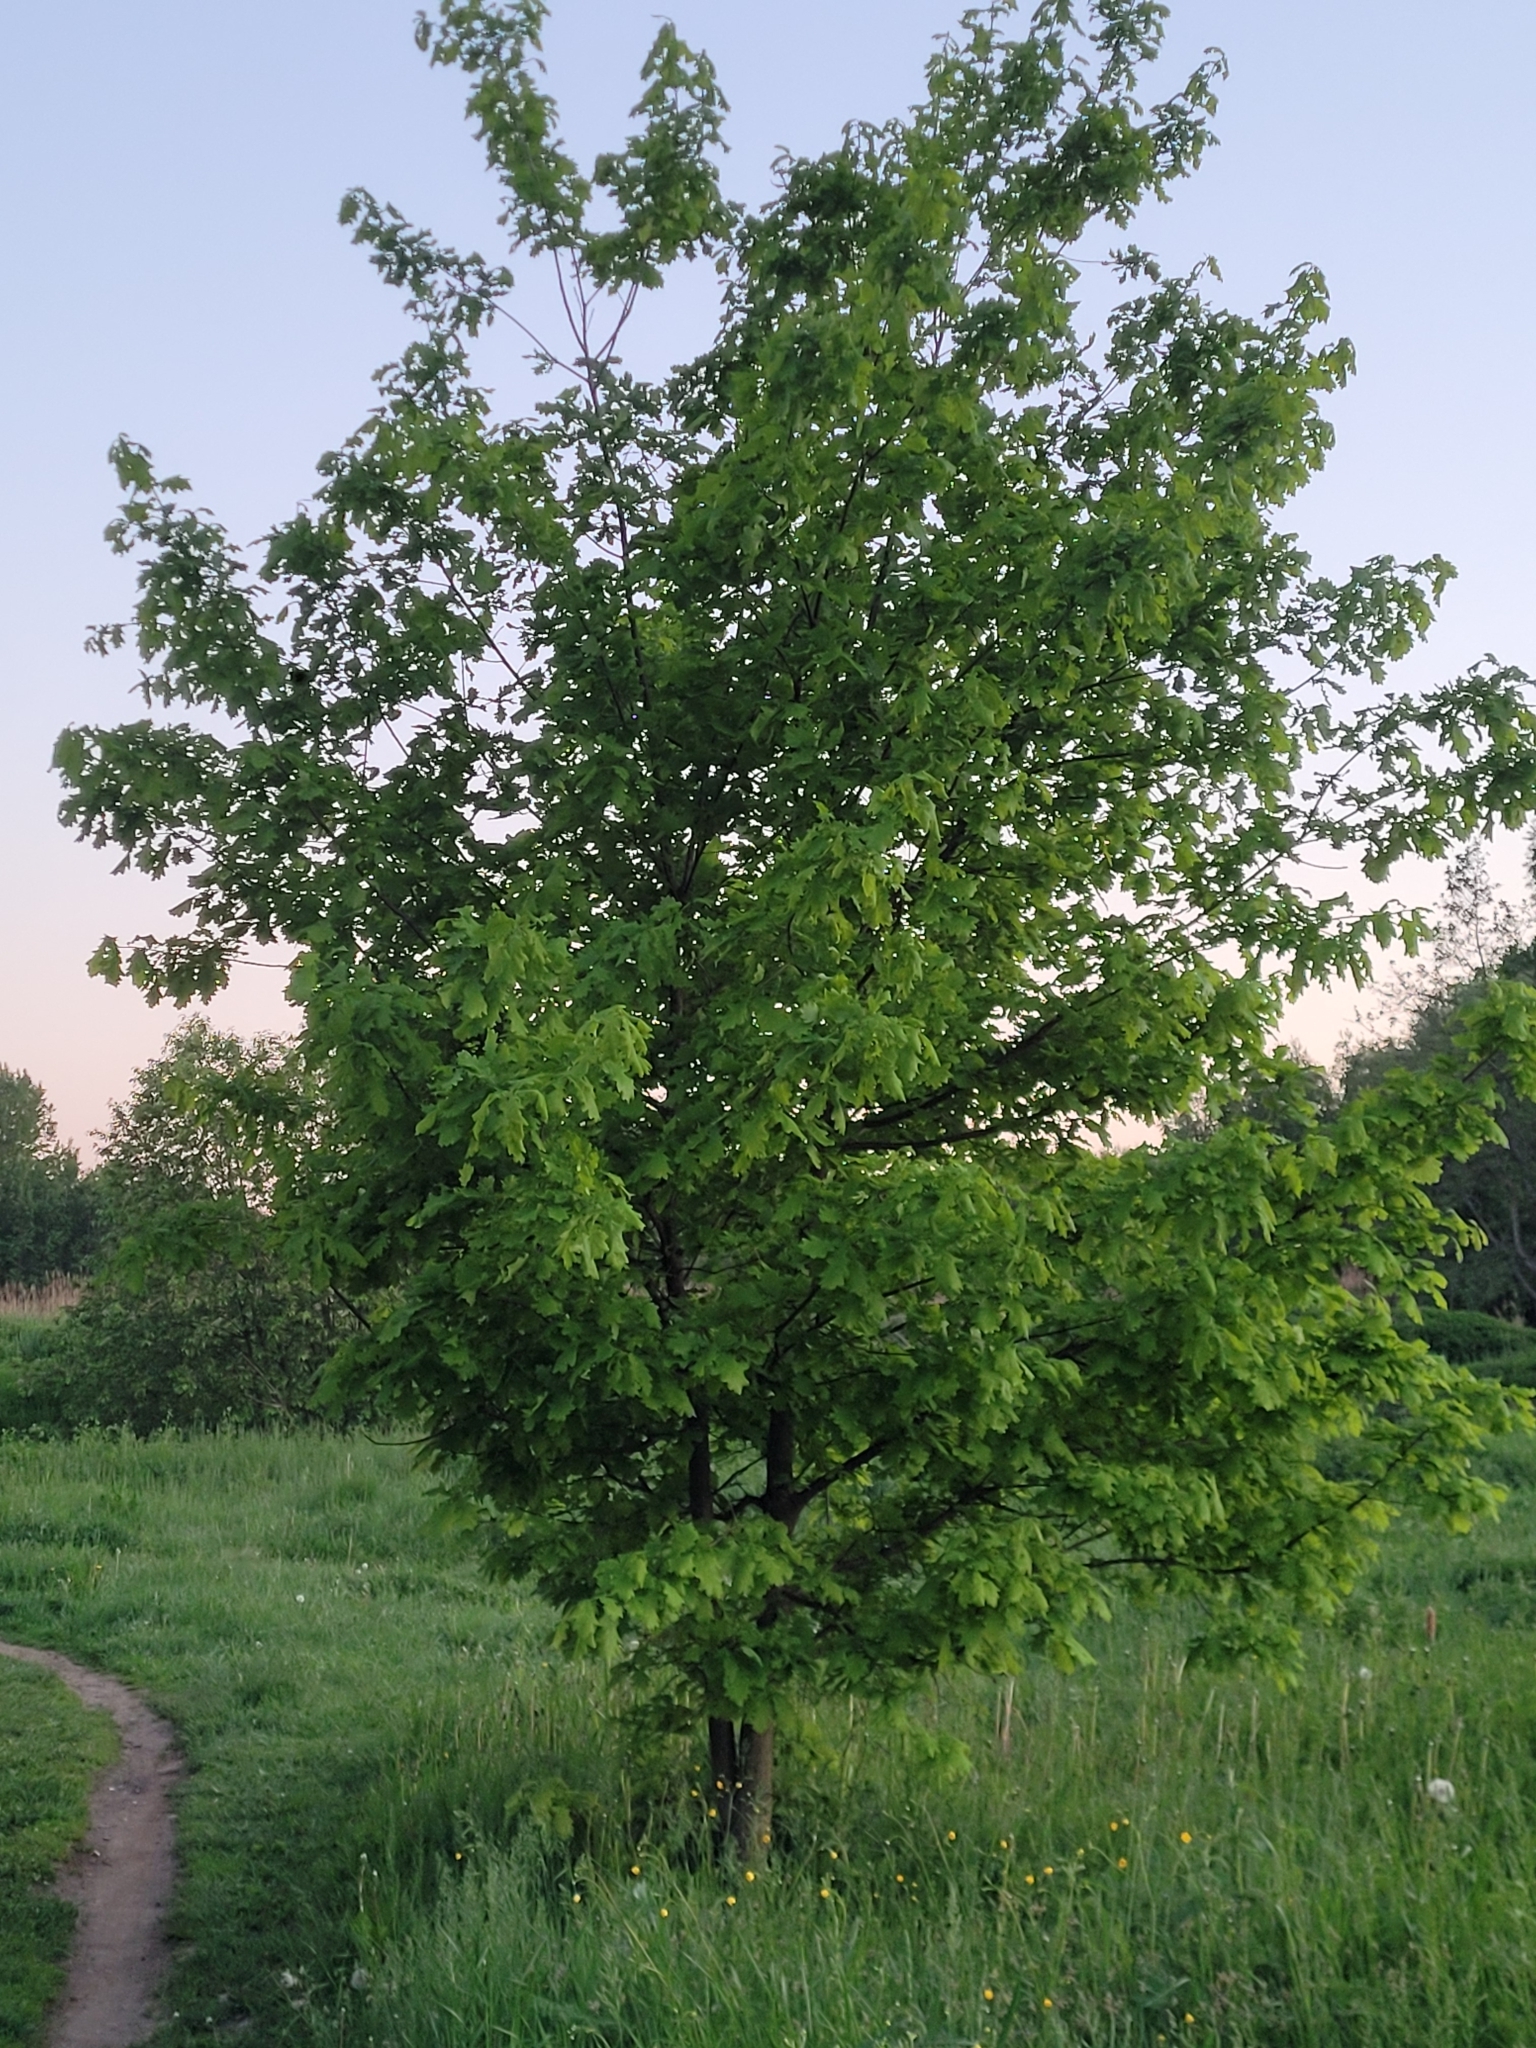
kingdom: Plantae
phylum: Tracheophyta
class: Magnoliopsida
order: Fagales
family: Fagaceae
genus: Quercus
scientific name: Quercus robur
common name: Pedunculate oak
